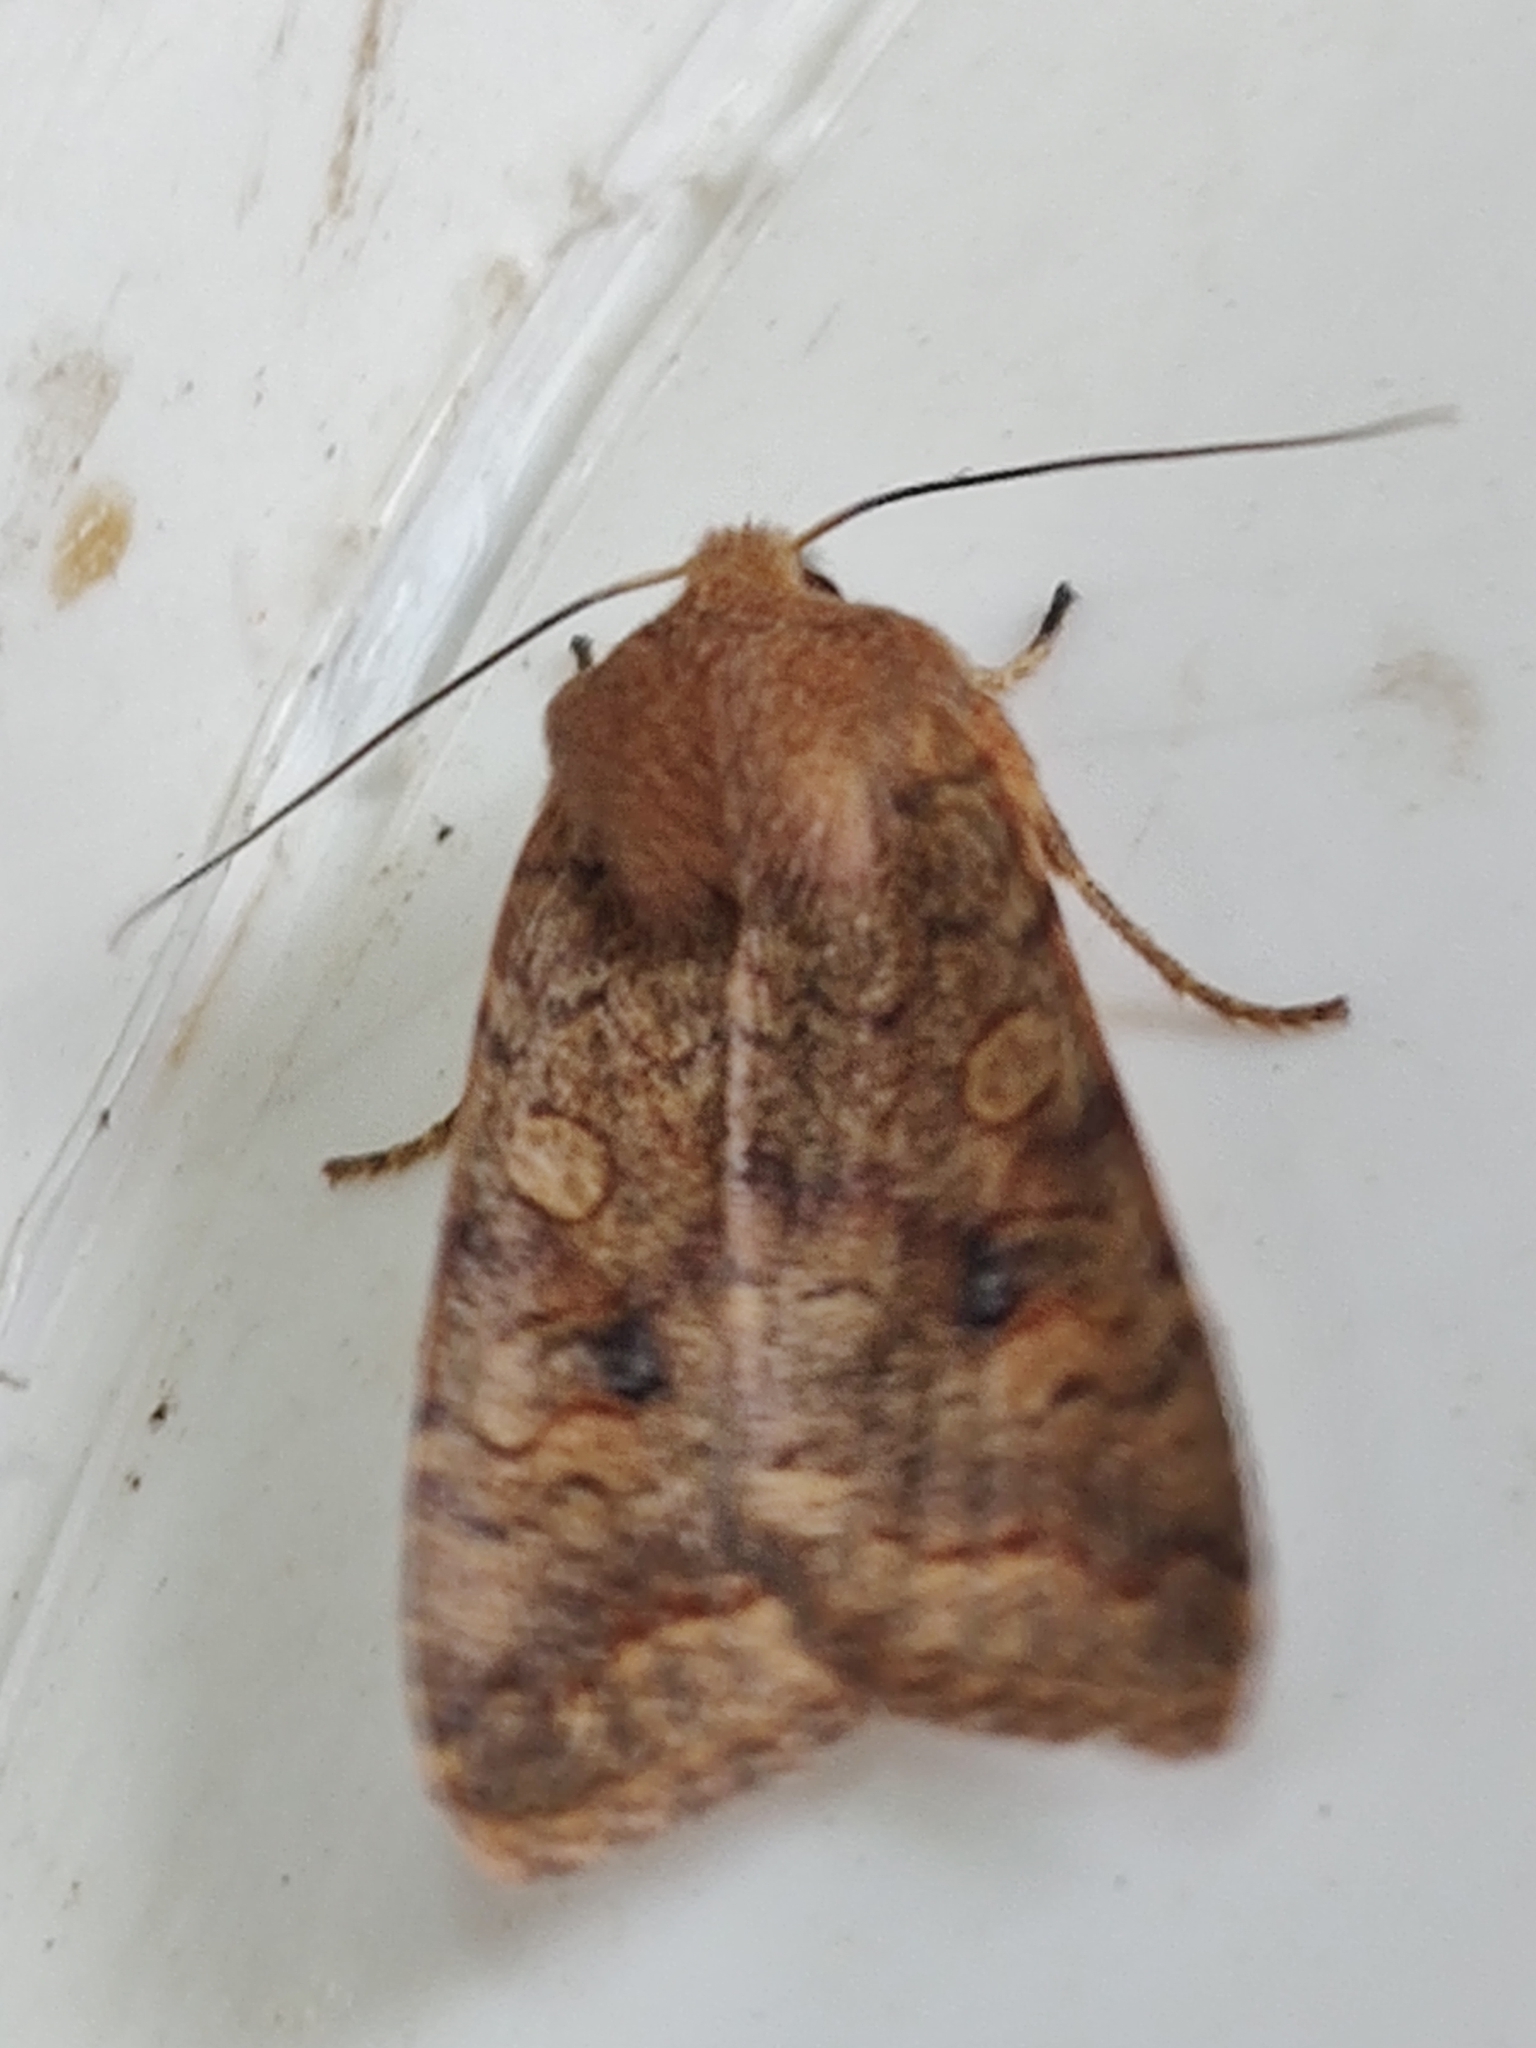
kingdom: Animalia
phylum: Arthropoda
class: Insecta
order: Lepidoptera
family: Noctuidae
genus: Sunira
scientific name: Sunira circellaris
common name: Brick
